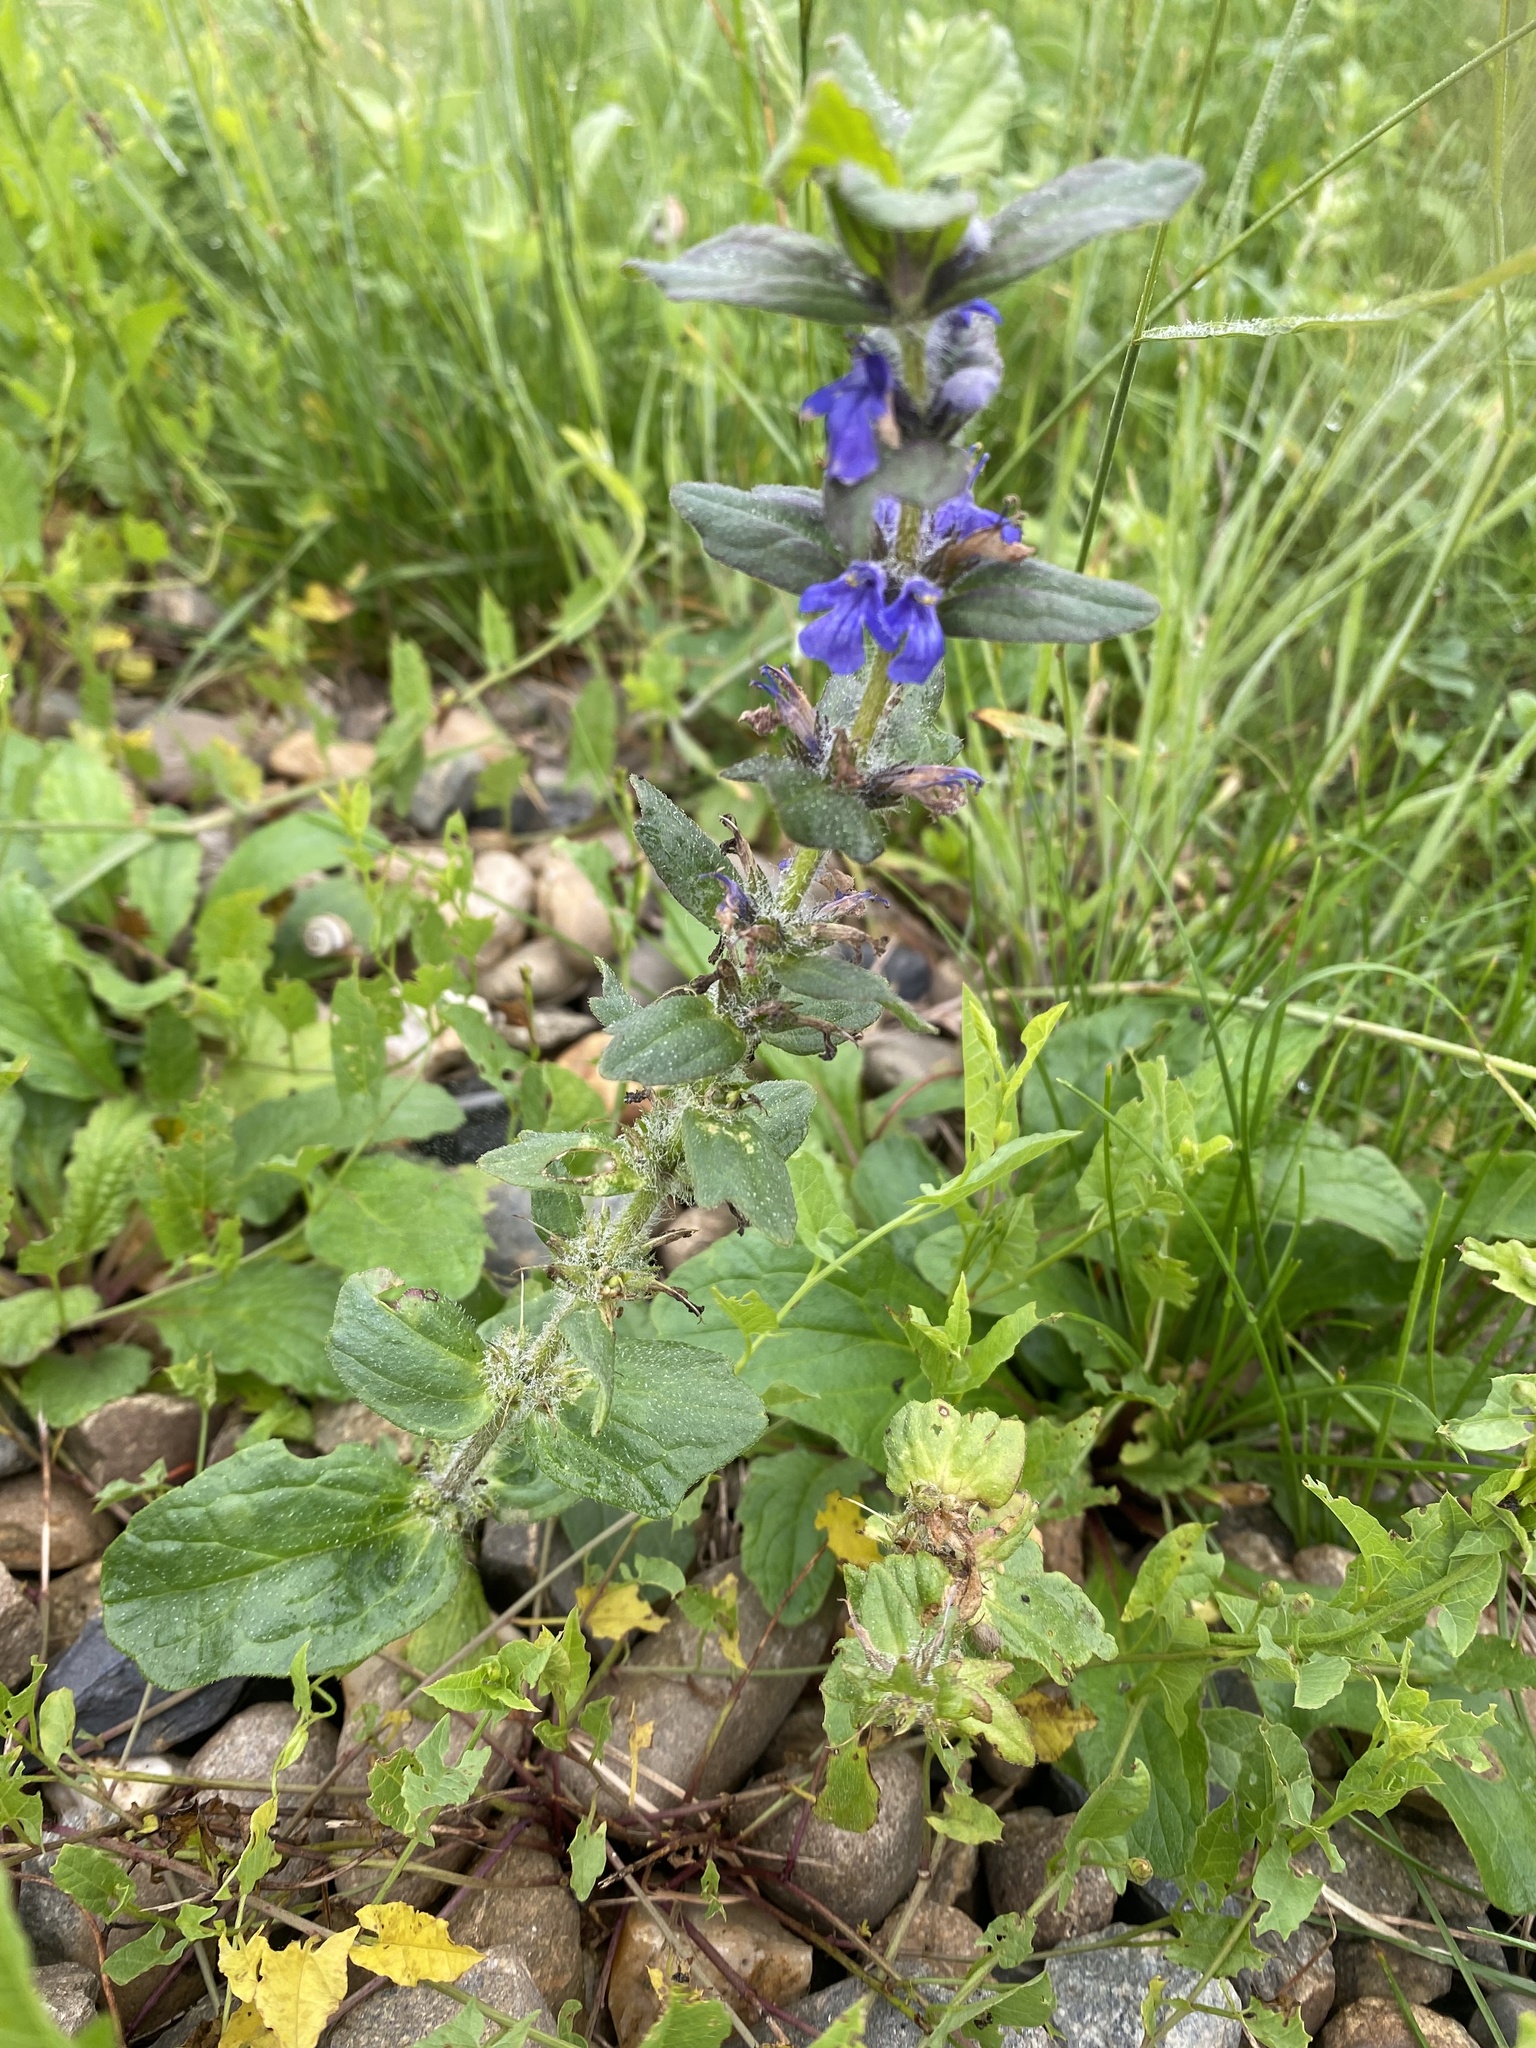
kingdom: Plantae
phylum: Tracheophyta
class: Magnoliopsida
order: Lamiales
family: Lamiaceae
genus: Ajuga
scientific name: Ajuga genevensis
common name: Blue bugle
